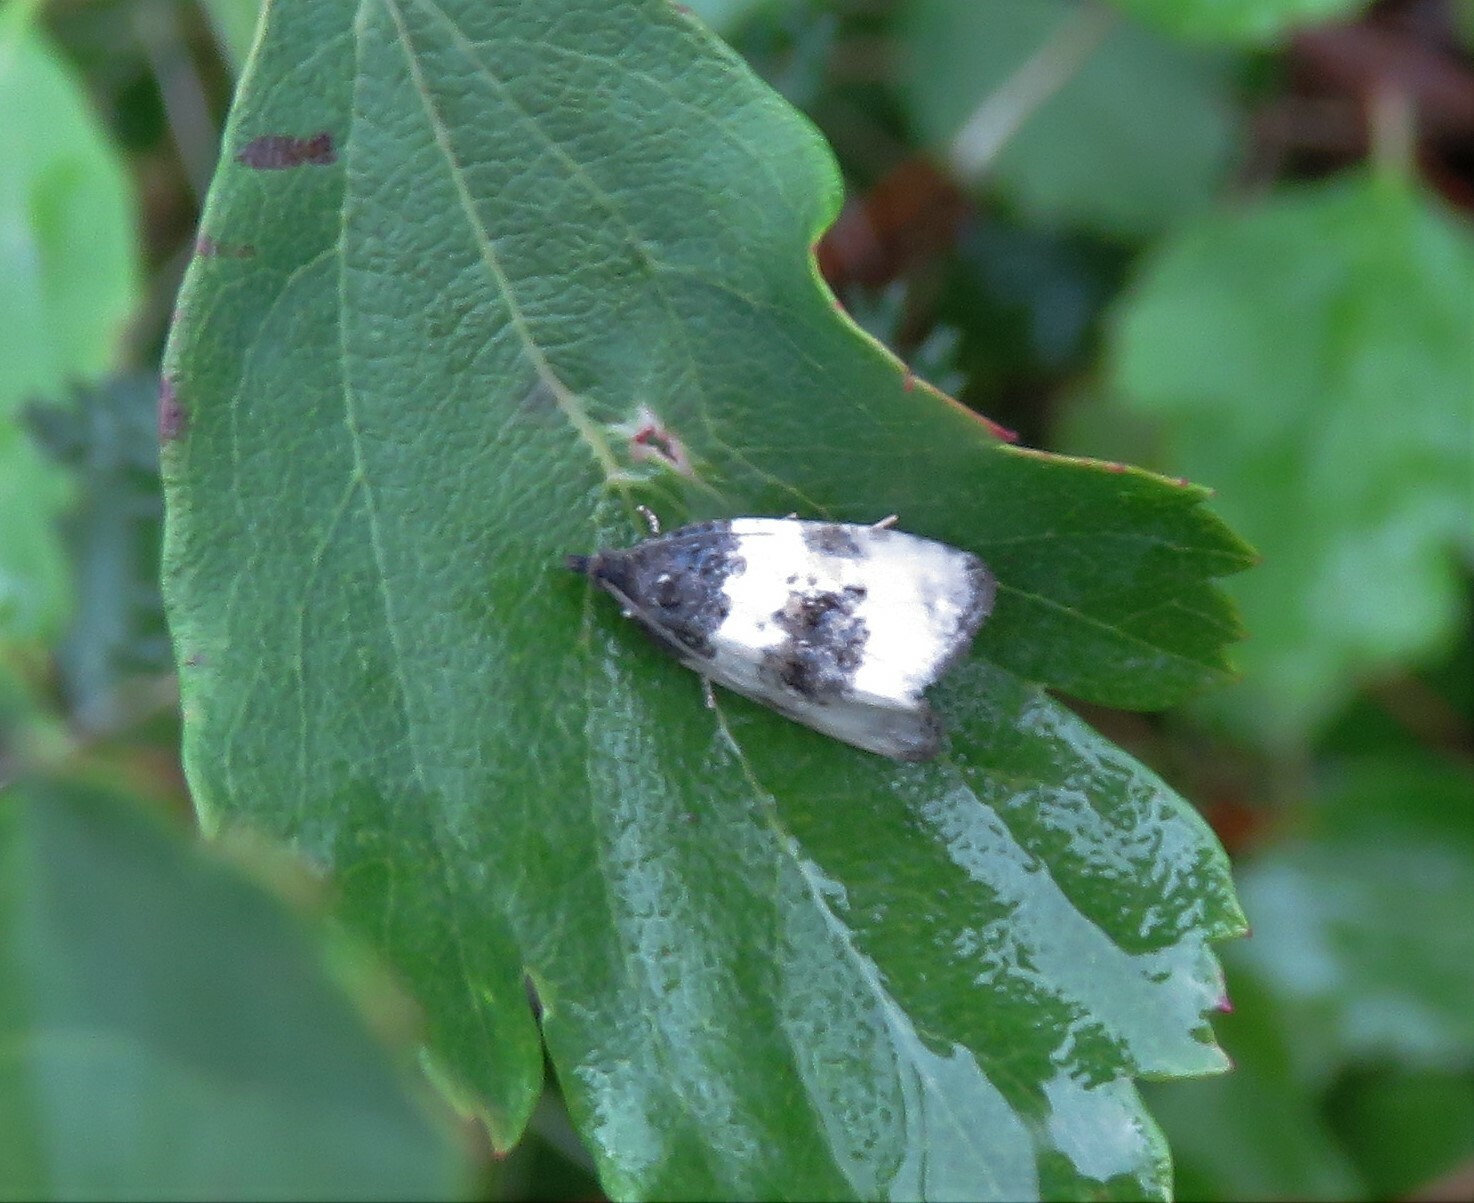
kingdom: Animalia
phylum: Arthropoda
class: Insecta
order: Lepidoptera
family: Tortricidae
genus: Olethreutes
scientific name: Olethreutes bipartitana
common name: Divided olethreutes moth
